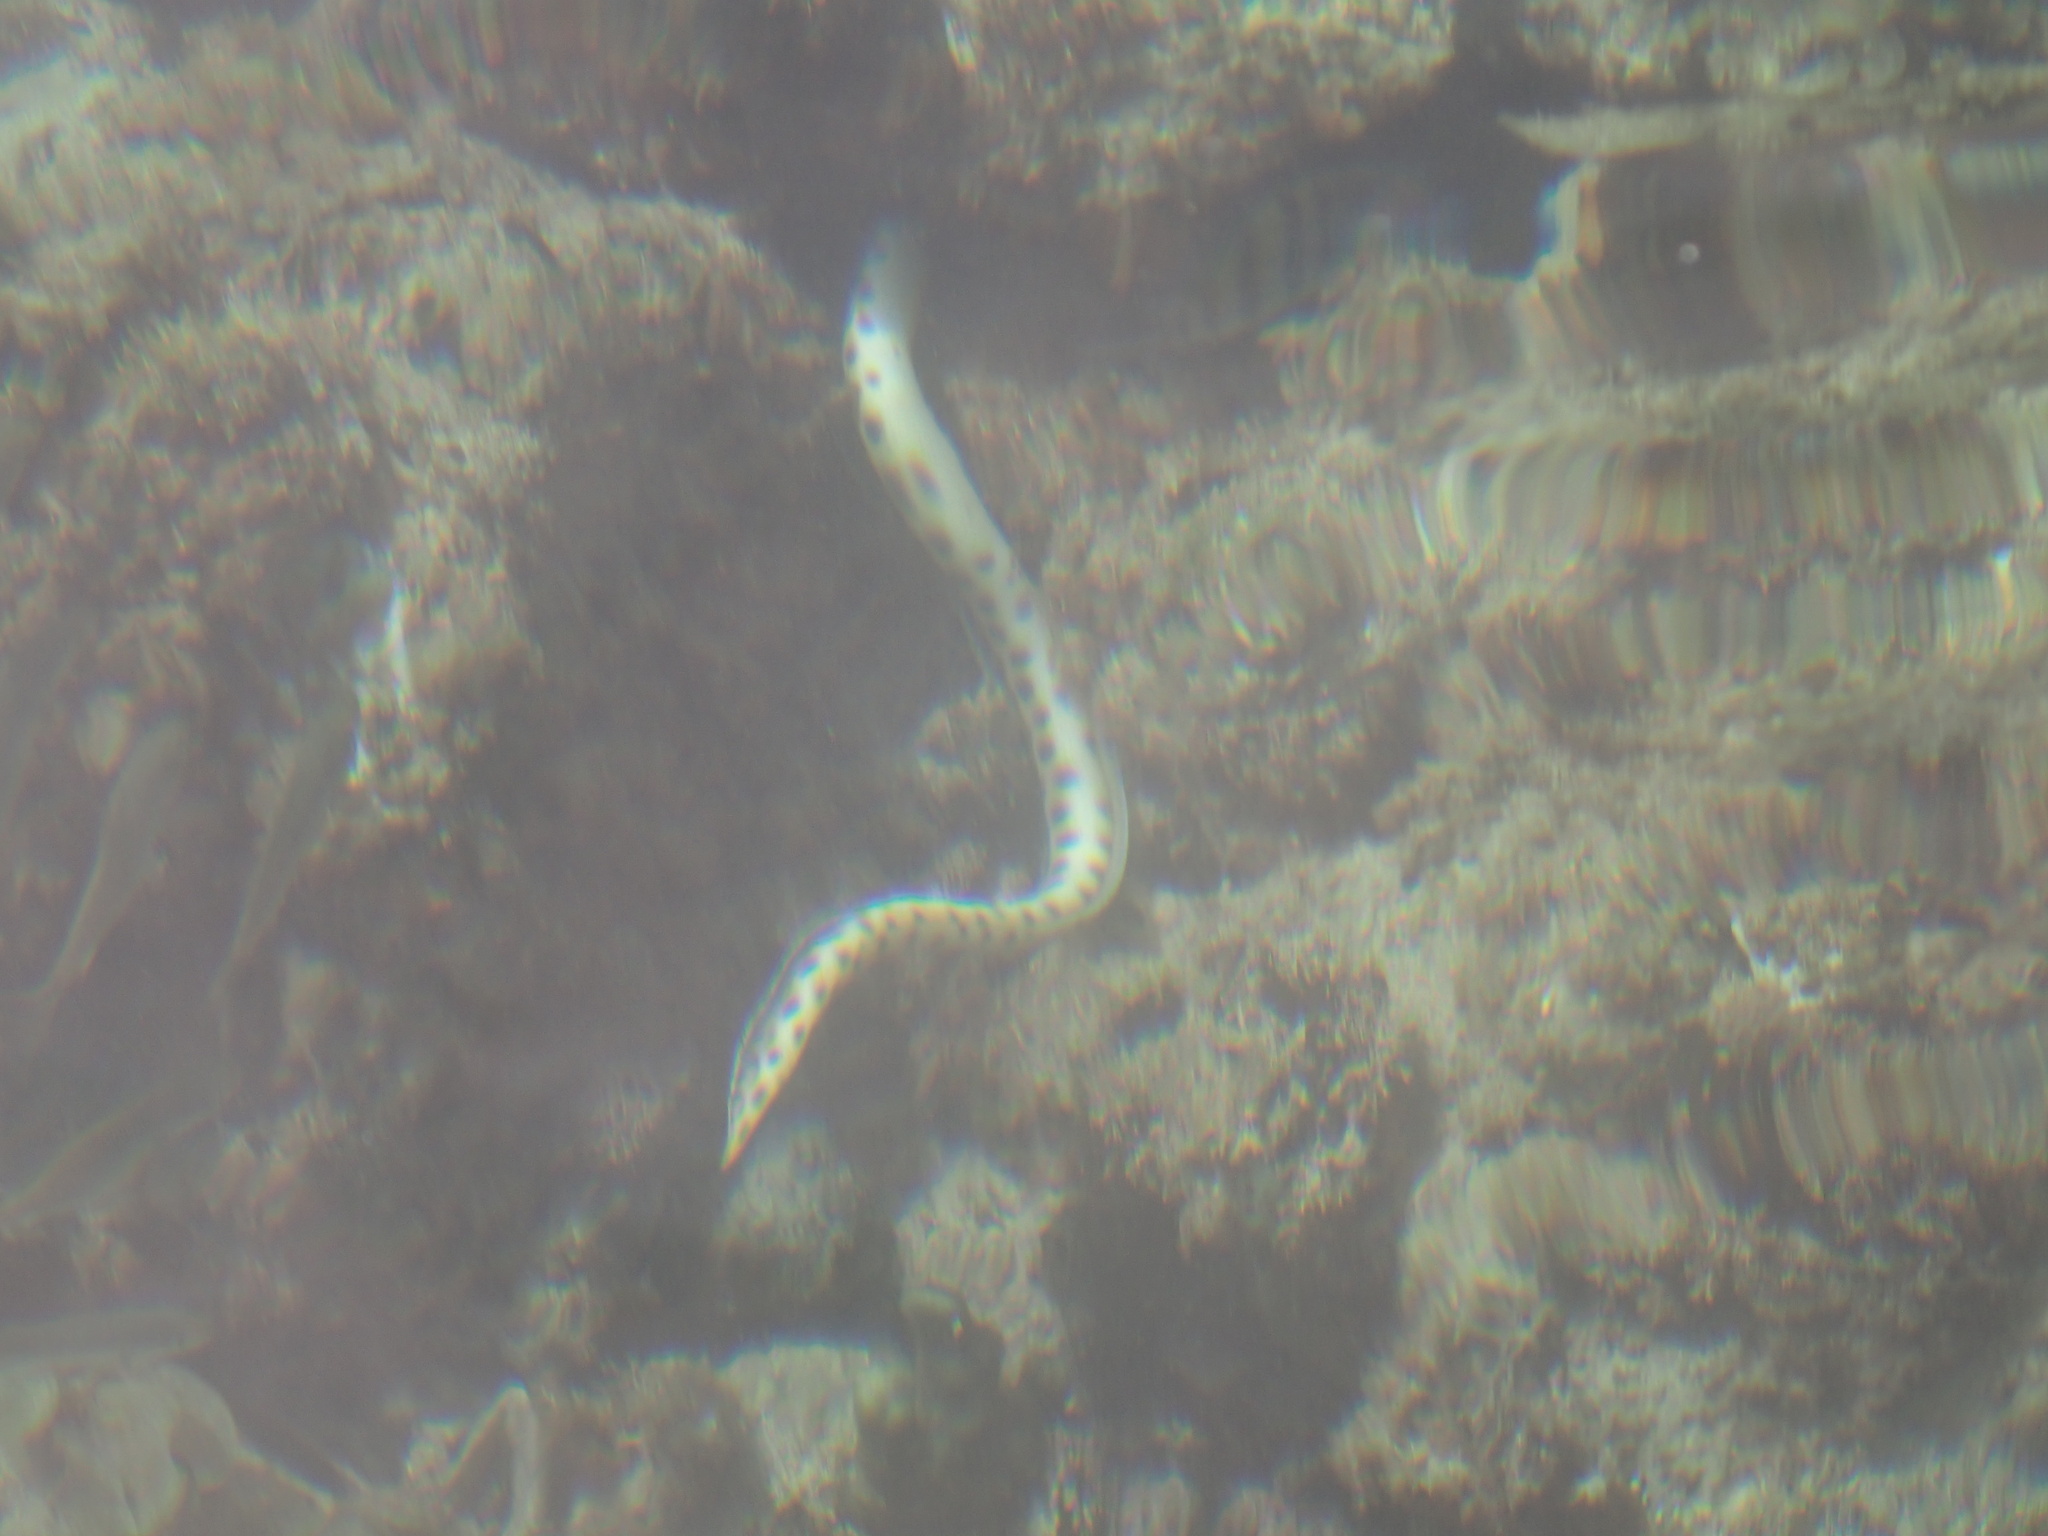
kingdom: Animalia
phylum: Chordata
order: Anguilliformes
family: Ophichthidae
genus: Myrichthys
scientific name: Myrichthys xysturus
